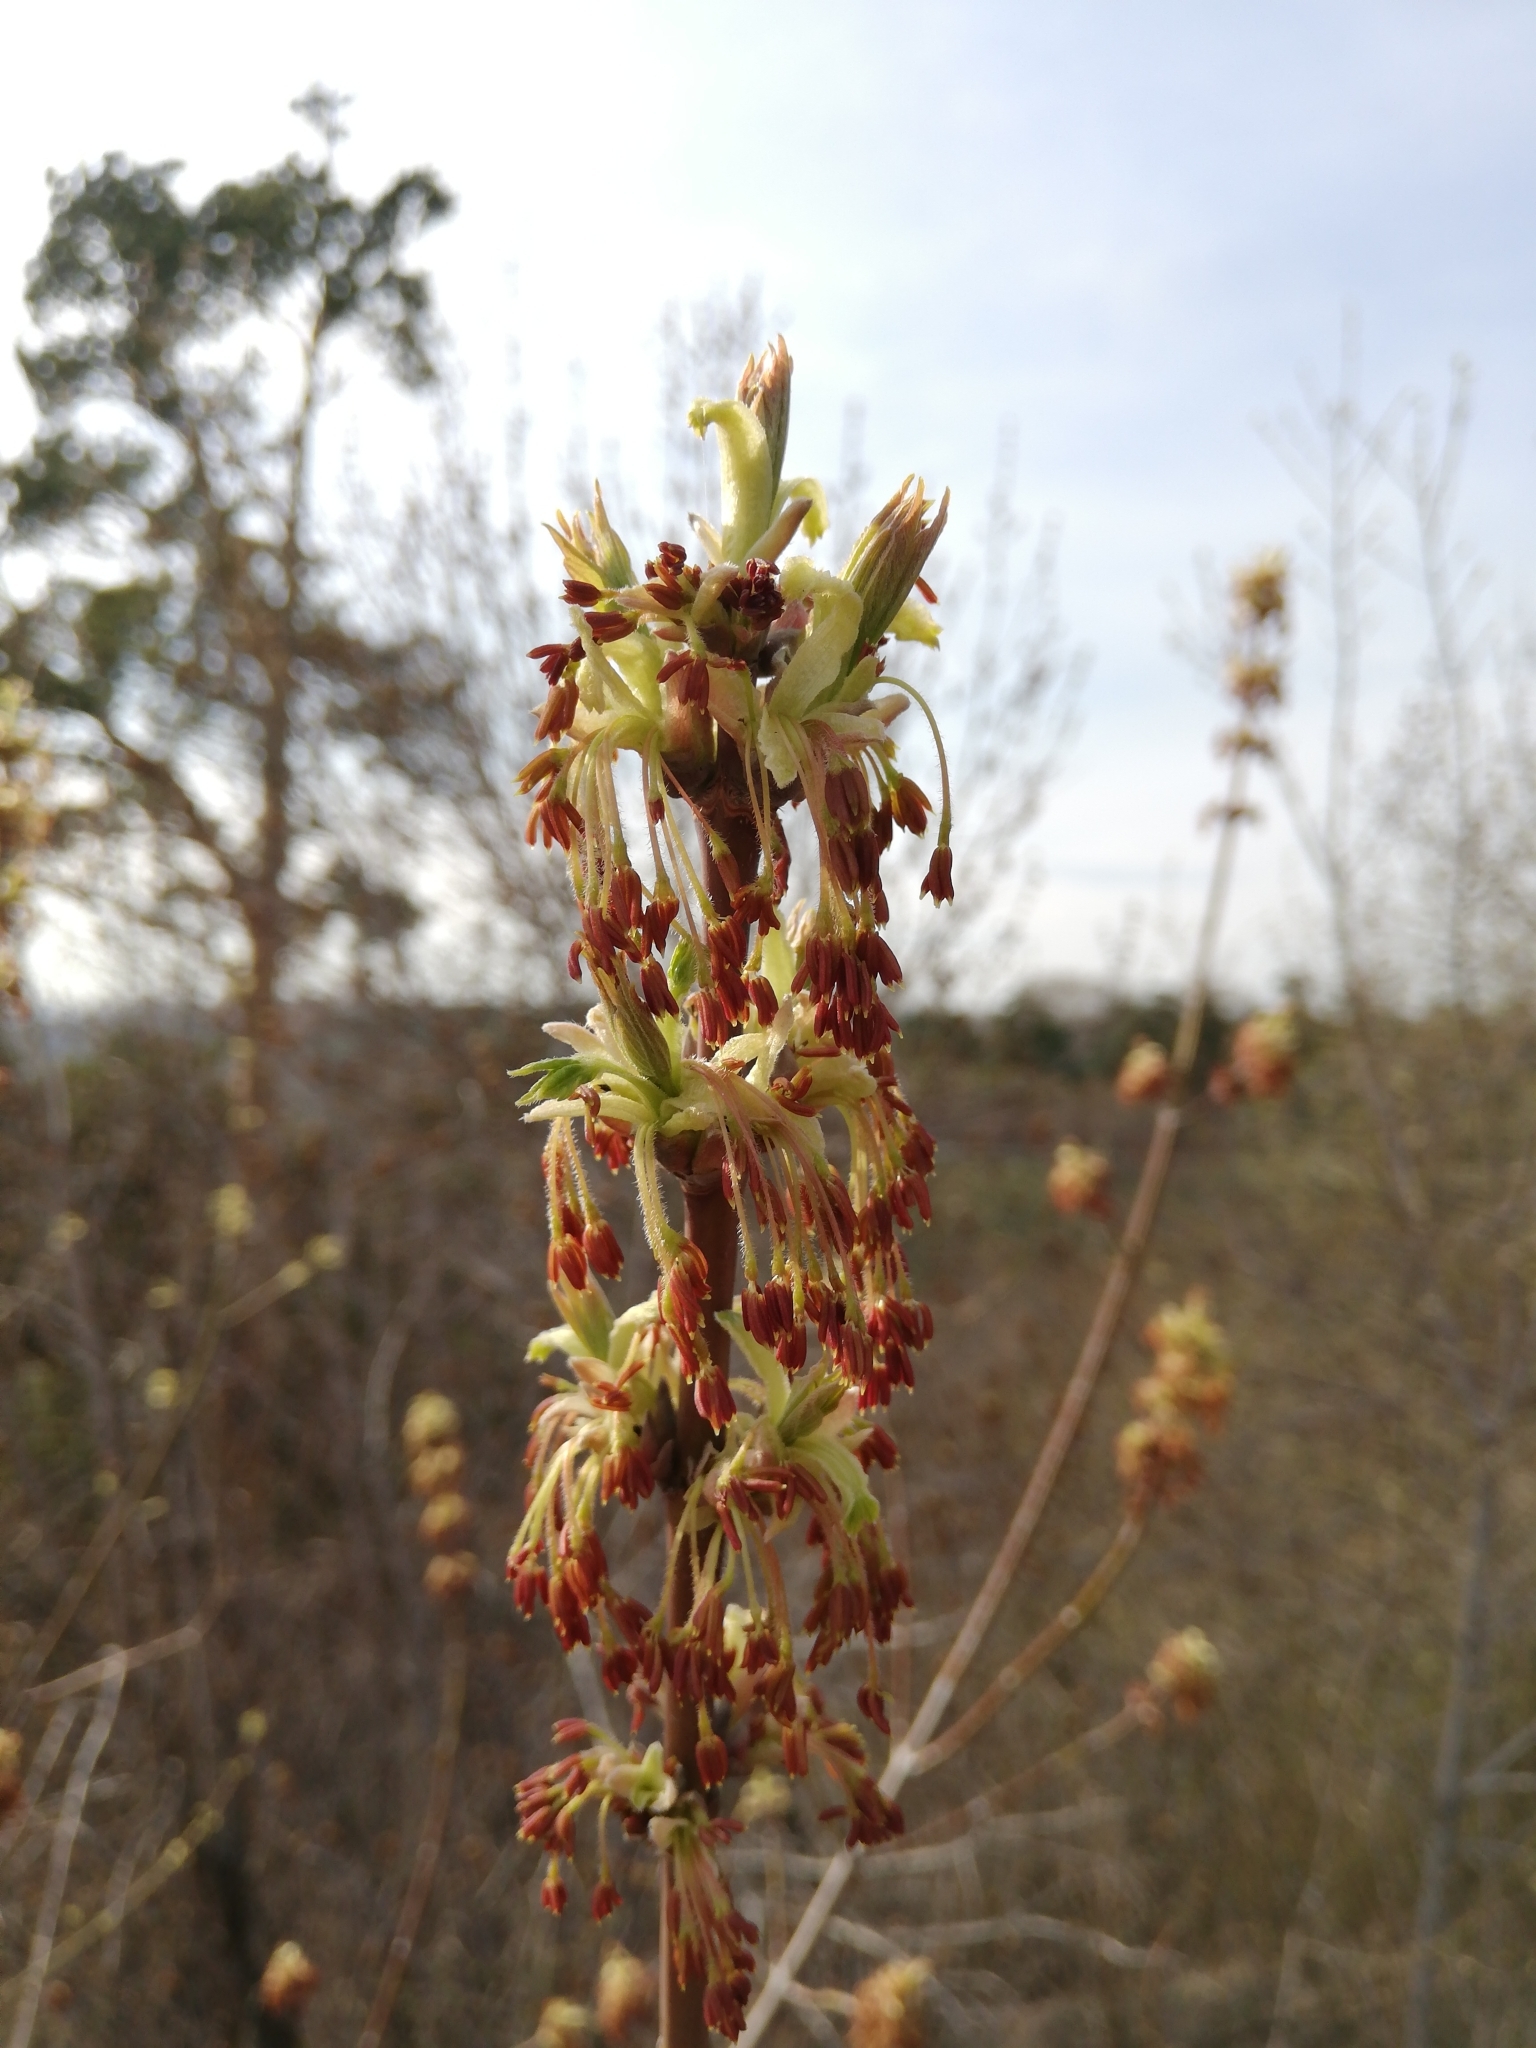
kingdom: Plantae
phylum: Tracheophyta
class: Magnoliopsida
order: Sapindales
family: Sapindaceae
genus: Acer
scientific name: Acer negundo
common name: Ashleaf maple
